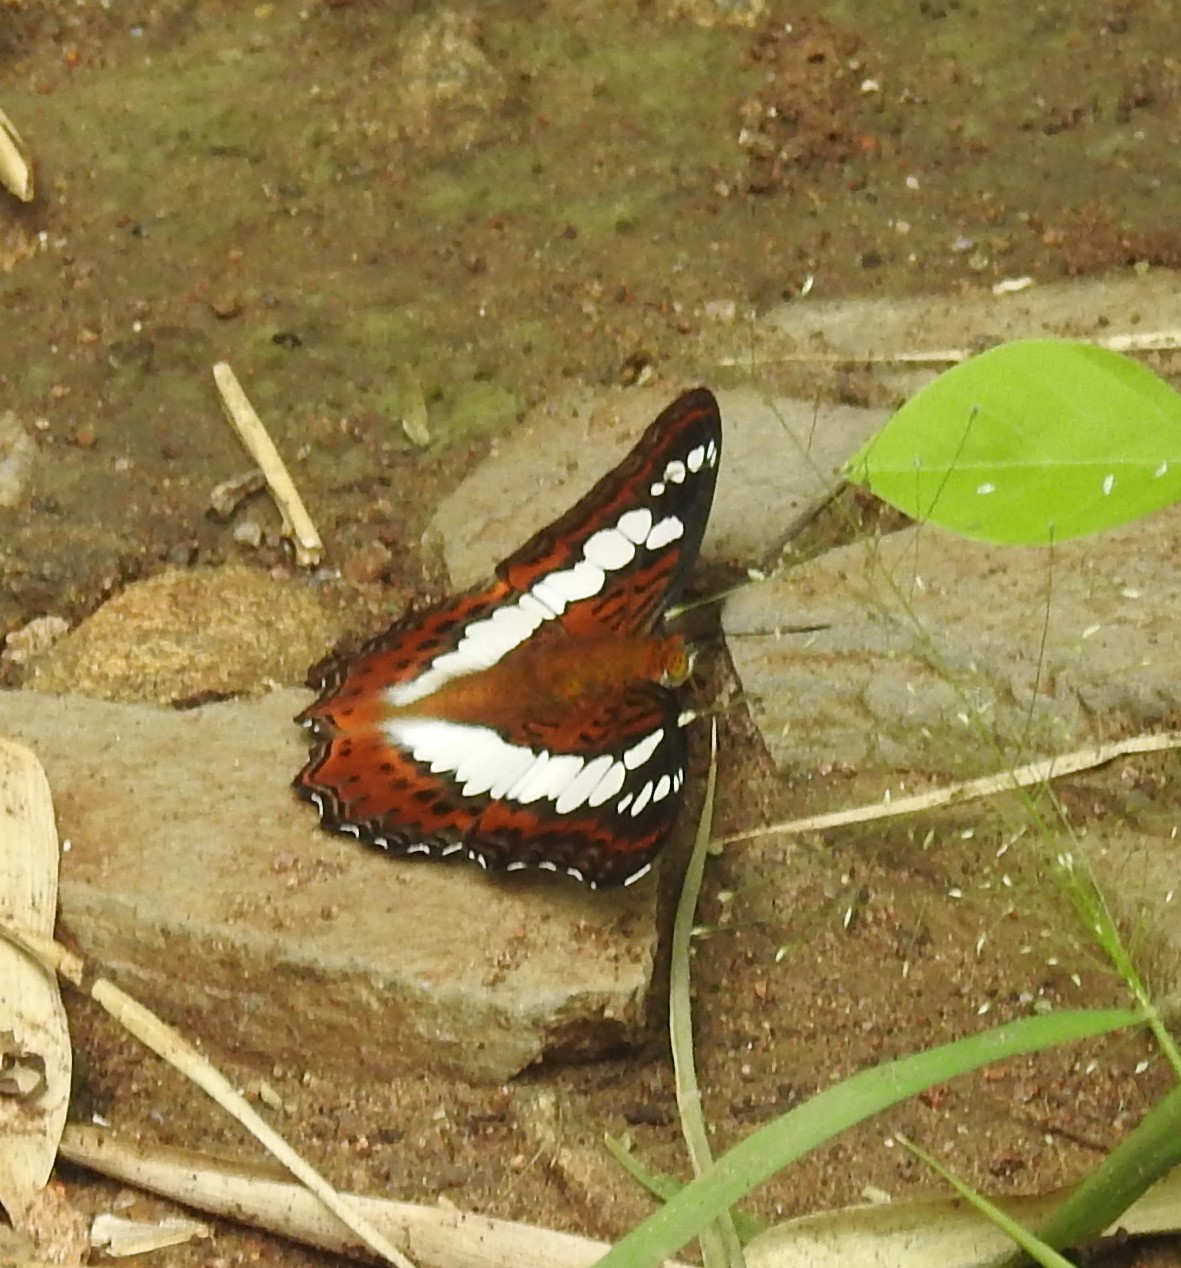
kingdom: Animalia
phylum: Arthropoda
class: Insecta
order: Lepidoptera
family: Nymphalidae
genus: Limenitis
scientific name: Limenitis Moduza procris
